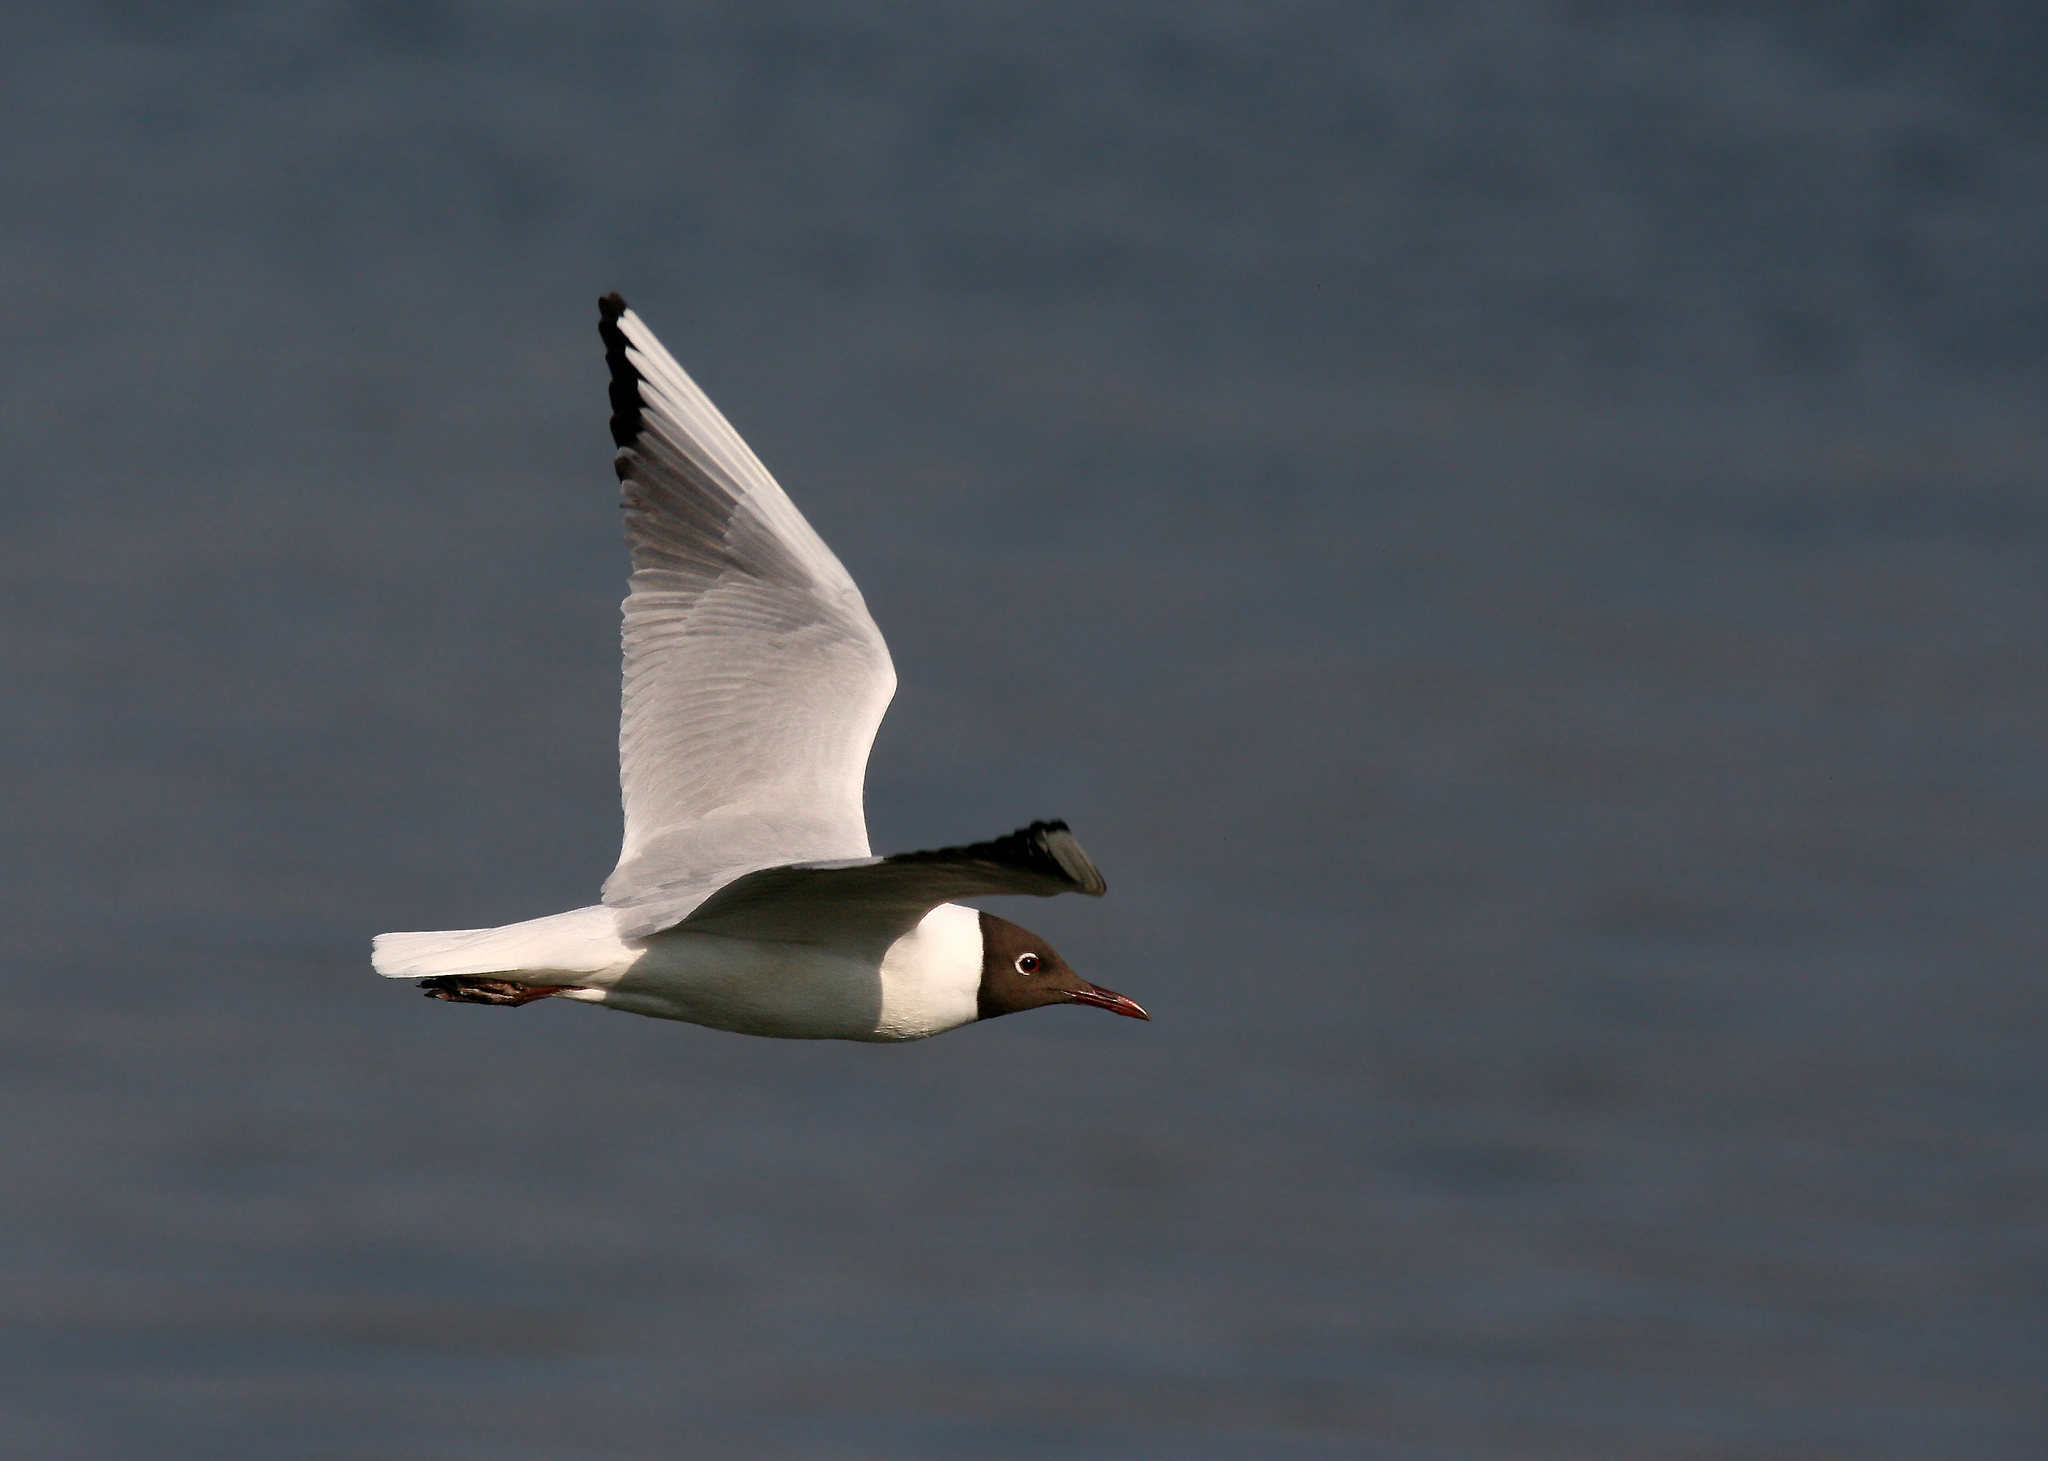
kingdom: Animalia
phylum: Chordata
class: Aves
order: Charadriiformes
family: Laridae
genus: Chroicocephalus
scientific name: Chroicocephalus ridibundus
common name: Black-headed gull
